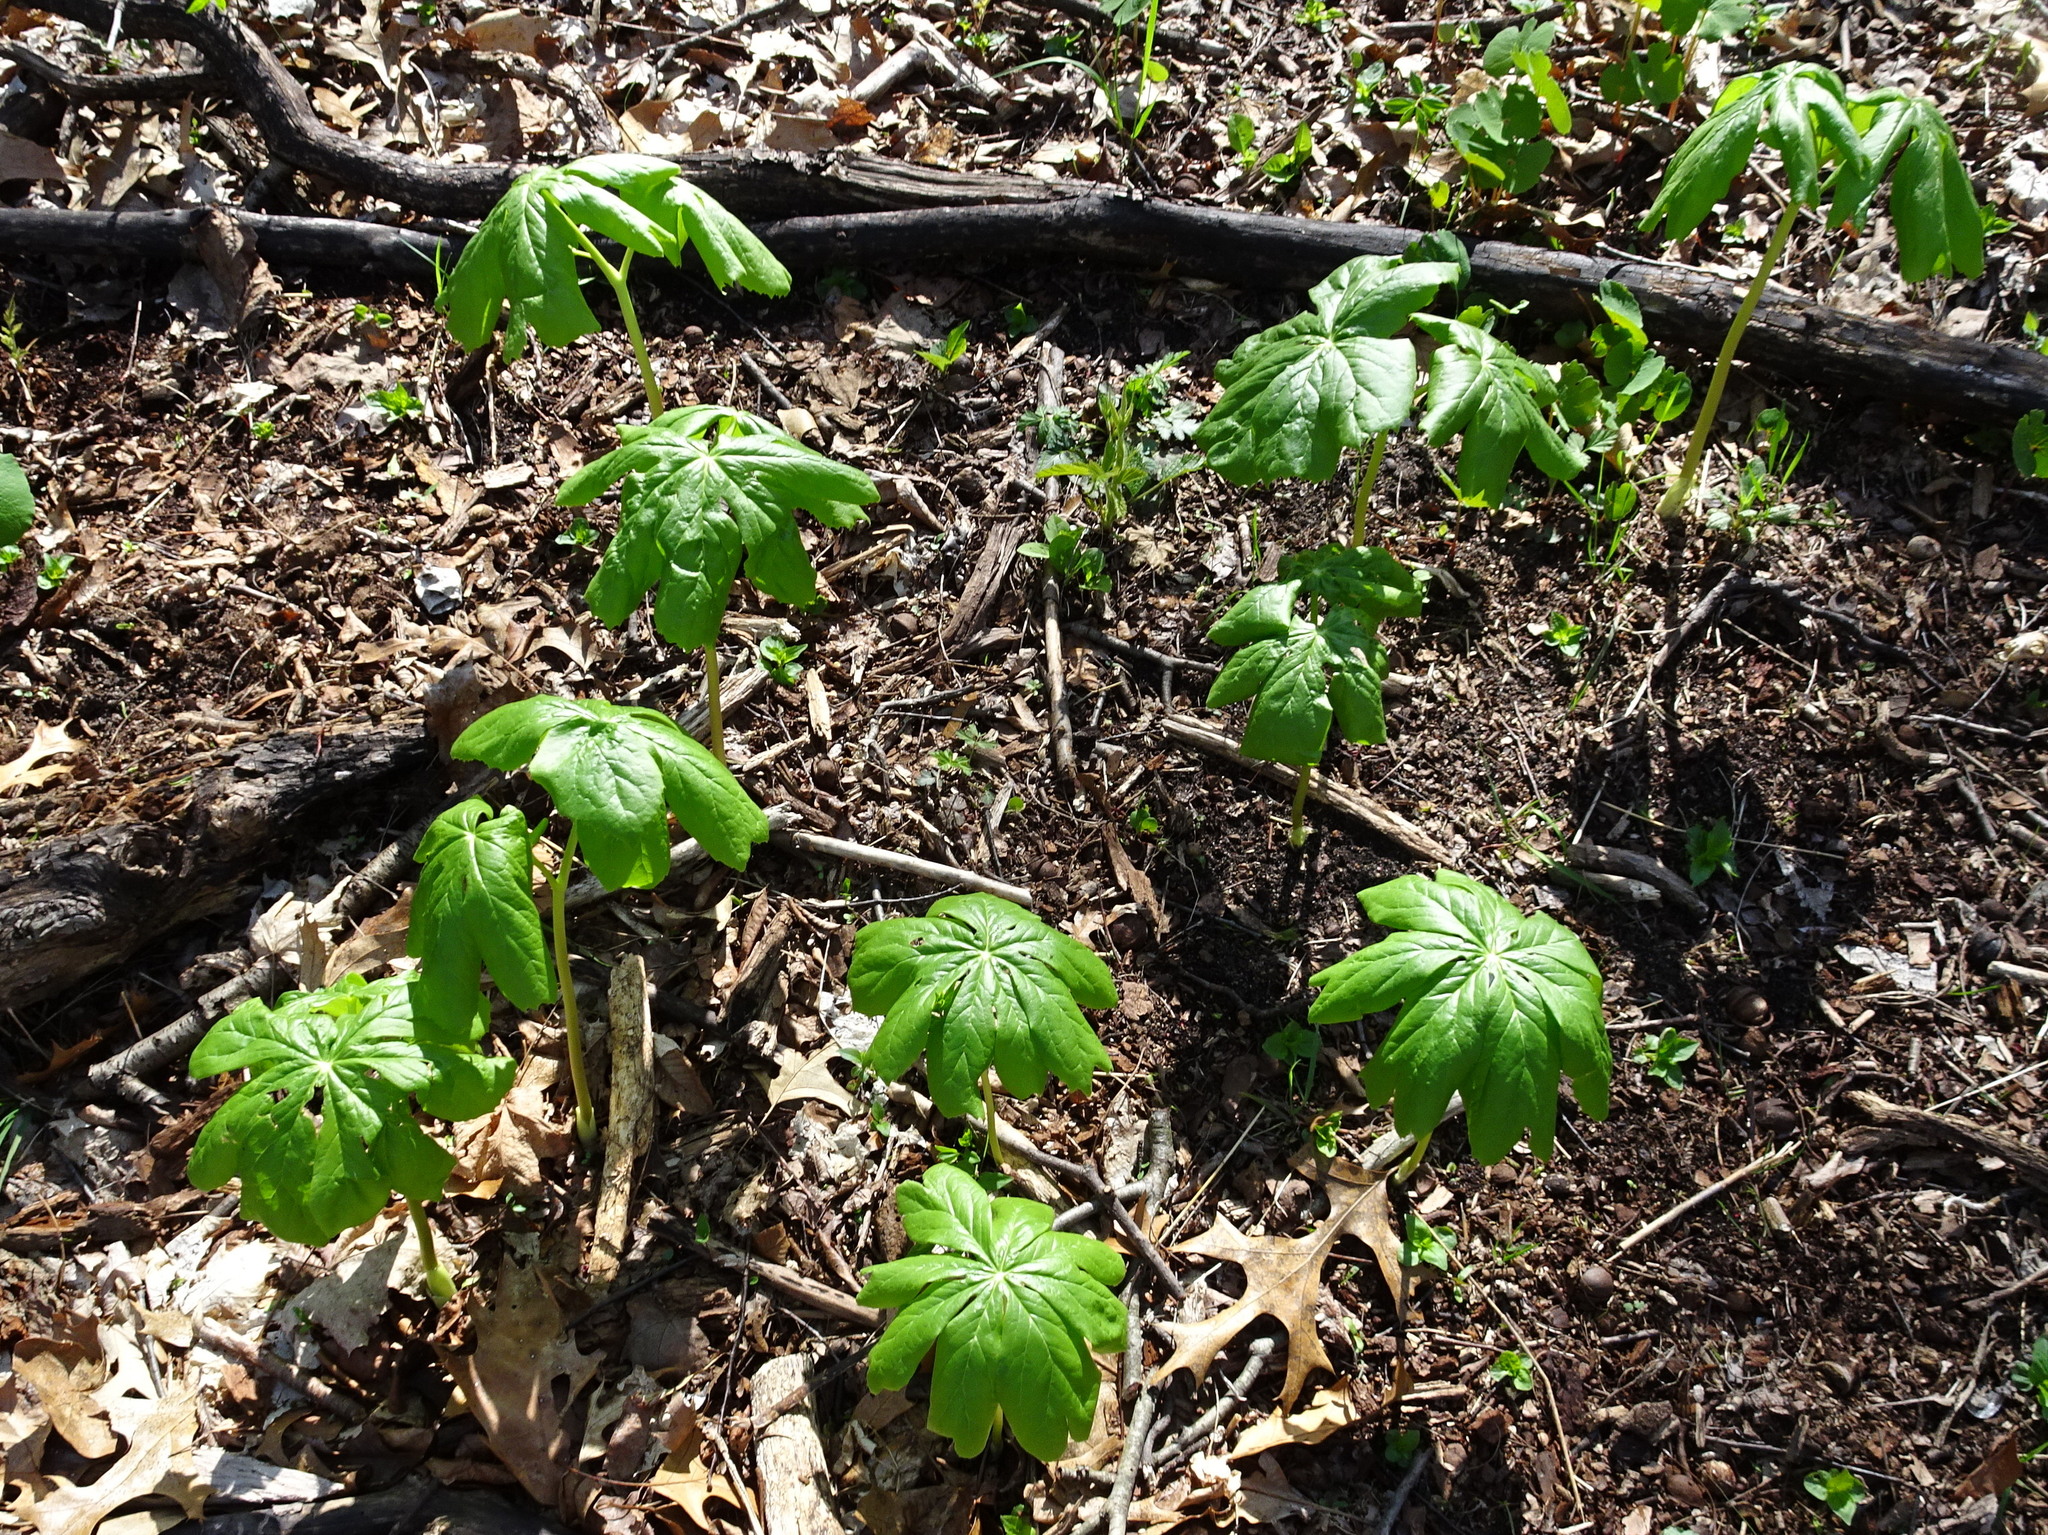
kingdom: Plantae
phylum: Tracheophyta
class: Magnoliopsida
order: Ranunculales
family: Berberidaceae
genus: Podophyllum
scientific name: Podophyllum peltatum
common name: Wild mandrake
